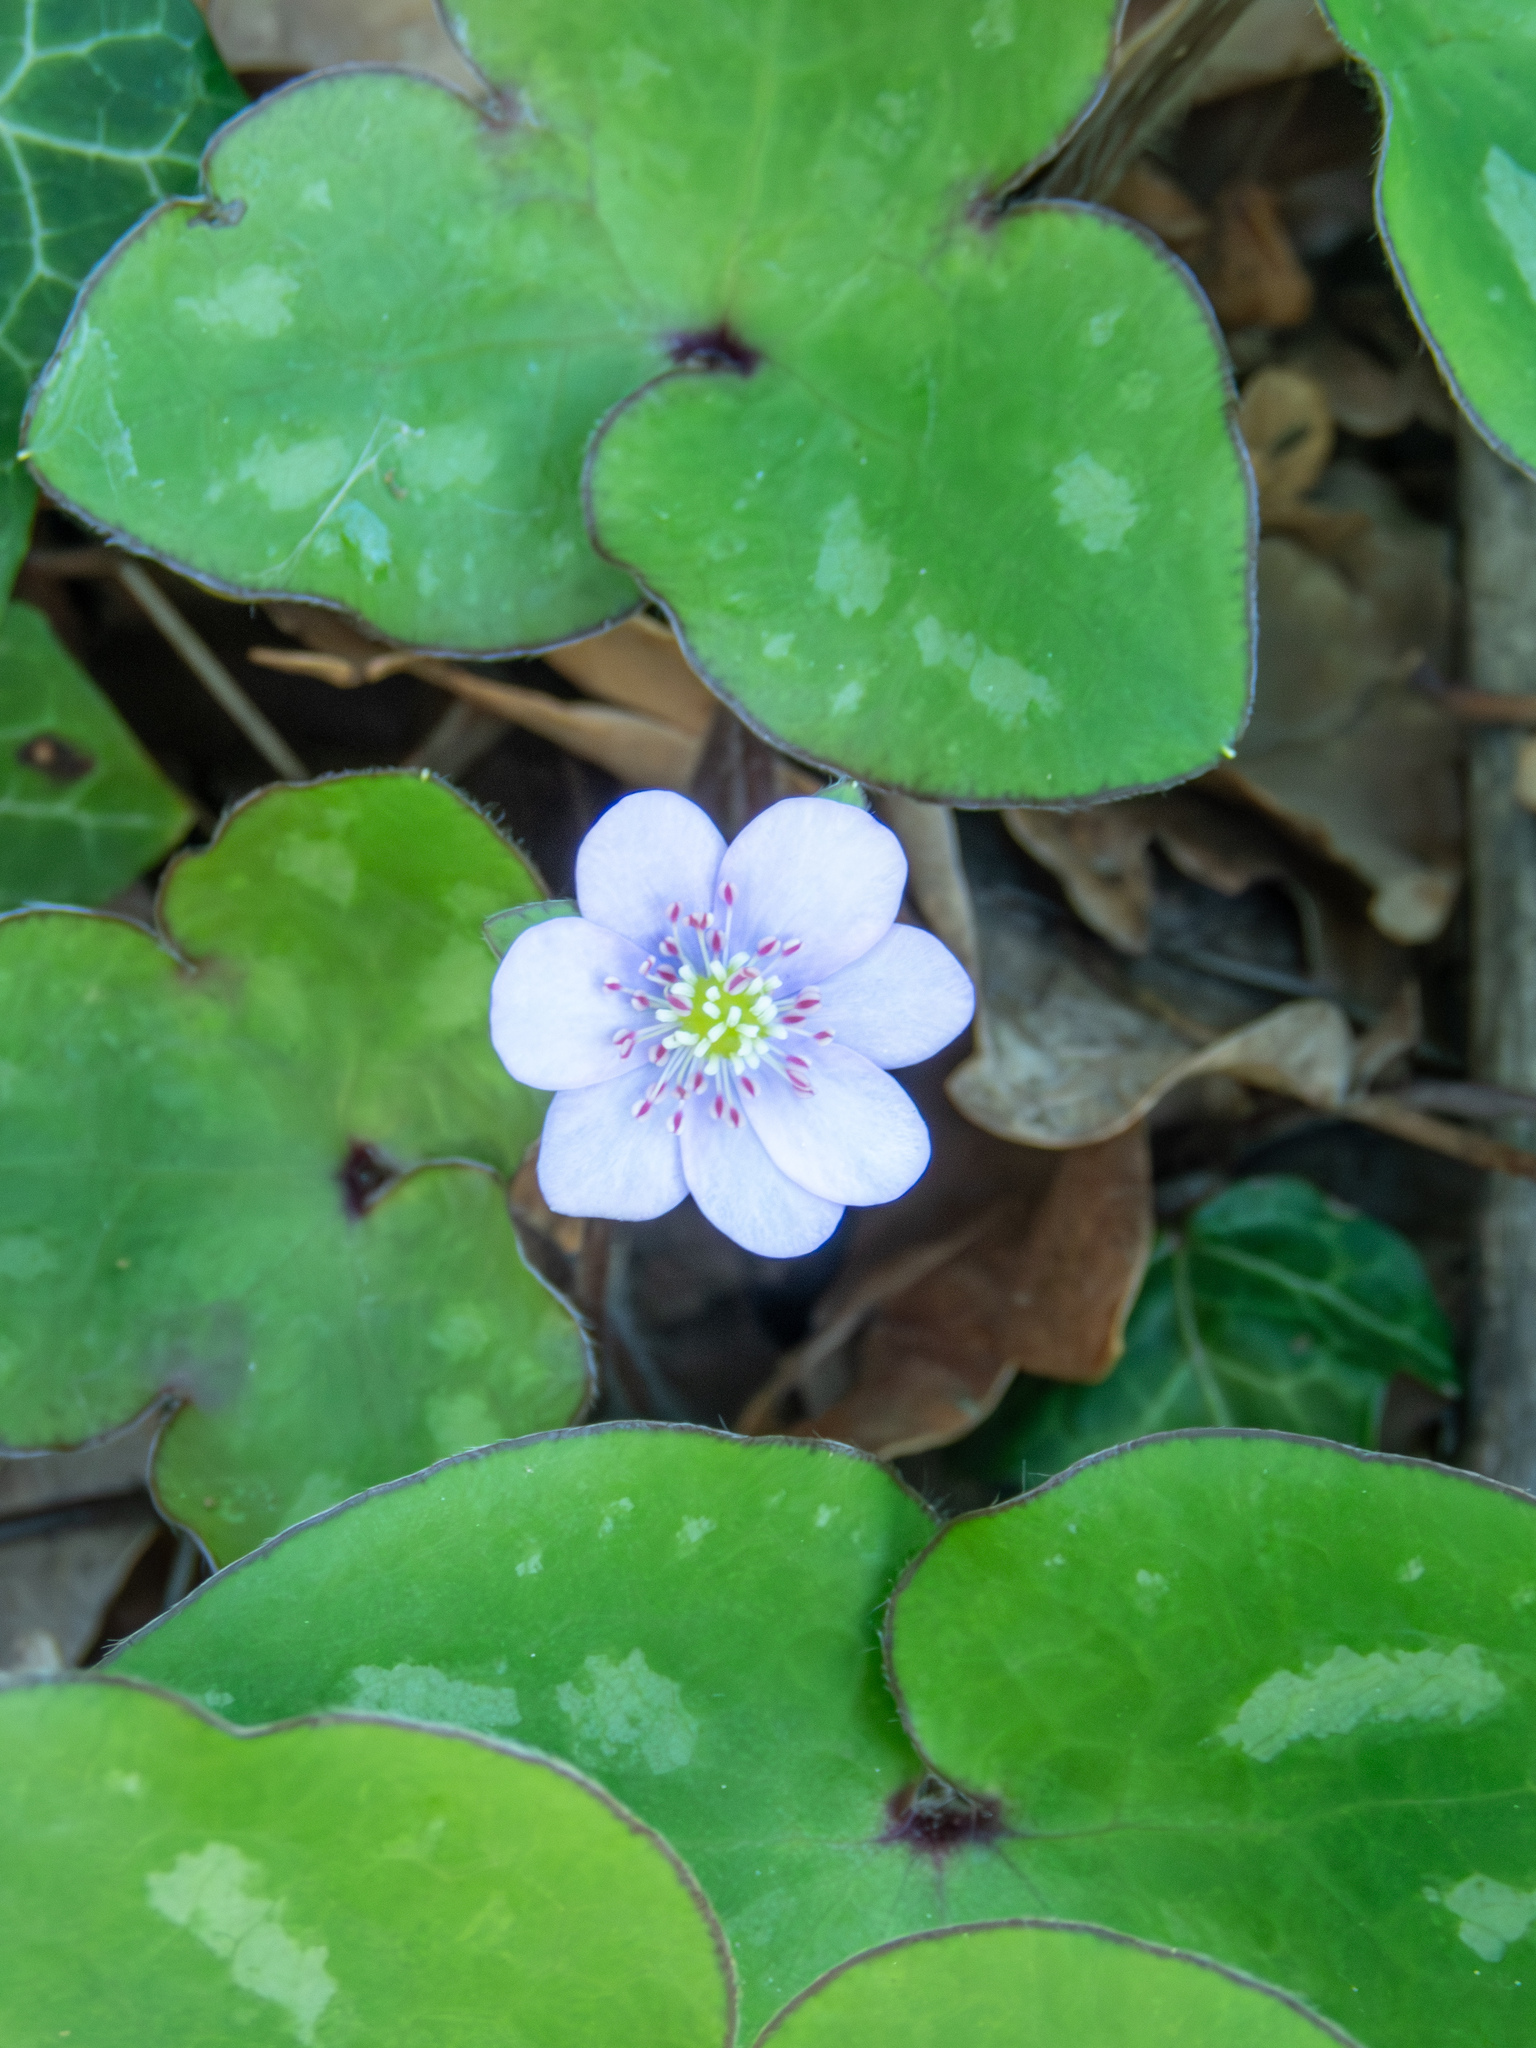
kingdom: Plantae
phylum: Tracheophyta
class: Magnoliopsida
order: Ranunculales
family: Ranunculaceae
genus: Hepatica
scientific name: Hepatica nobilis
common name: Liverleaf
